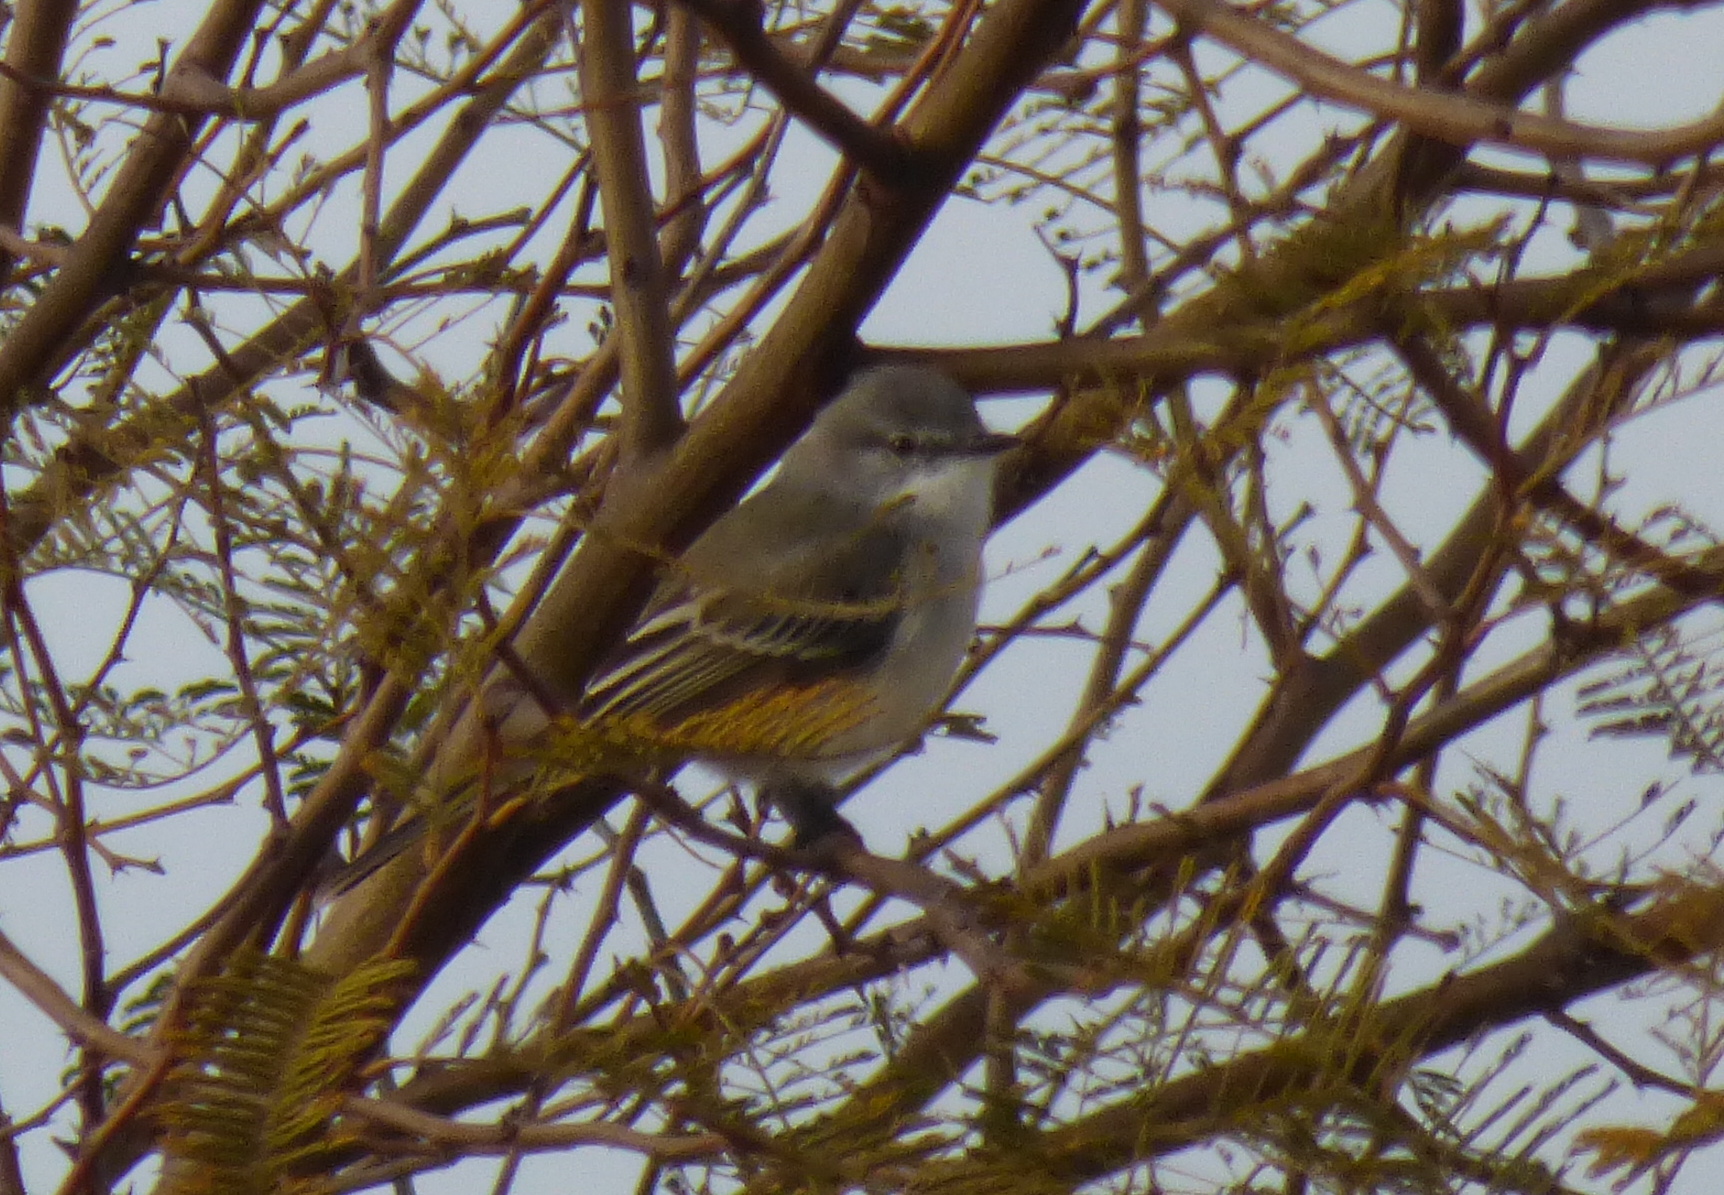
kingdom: Animalia
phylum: Chordata
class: Aves
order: Passeriformes
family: Tyrannidae
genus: Suiriri
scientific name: Suiriri suiriri
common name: Suiriri flycatcher
